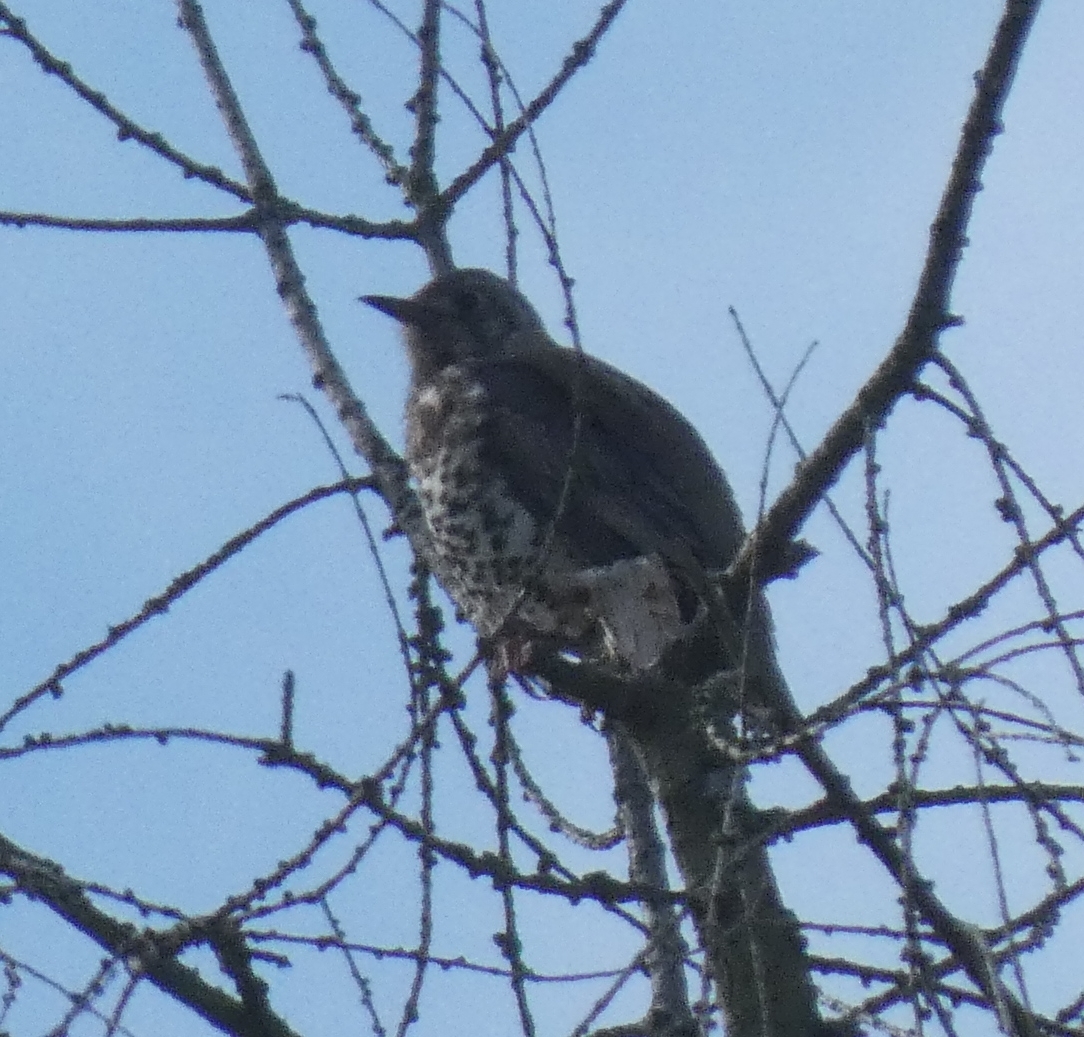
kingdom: Animalia
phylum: Chordata
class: Aves
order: Passeriformes
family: Turdidae
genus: Turdus
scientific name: Turdus viscivorus
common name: Mistle thrush
